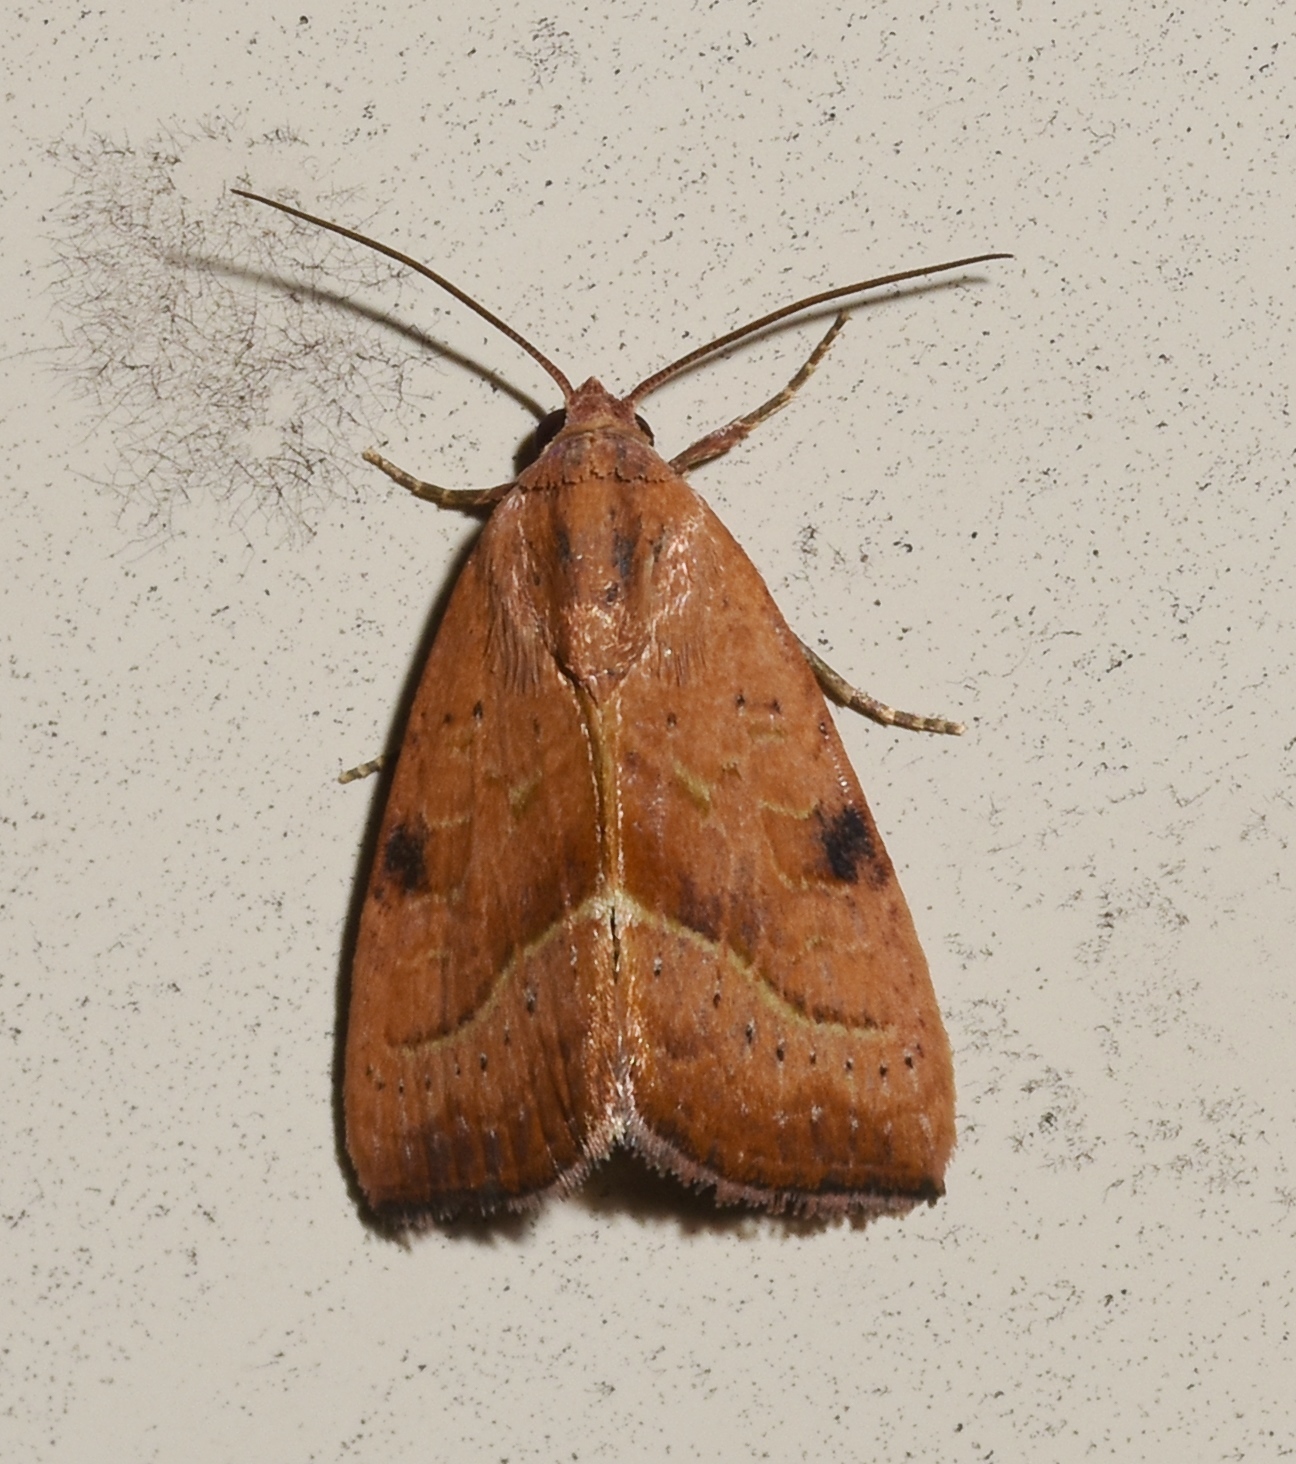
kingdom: Animalia
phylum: Arthropoda
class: Insecta
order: Lepidoptera
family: Noctuidae
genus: Galgula
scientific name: Galgula partita
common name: Wedgeling
